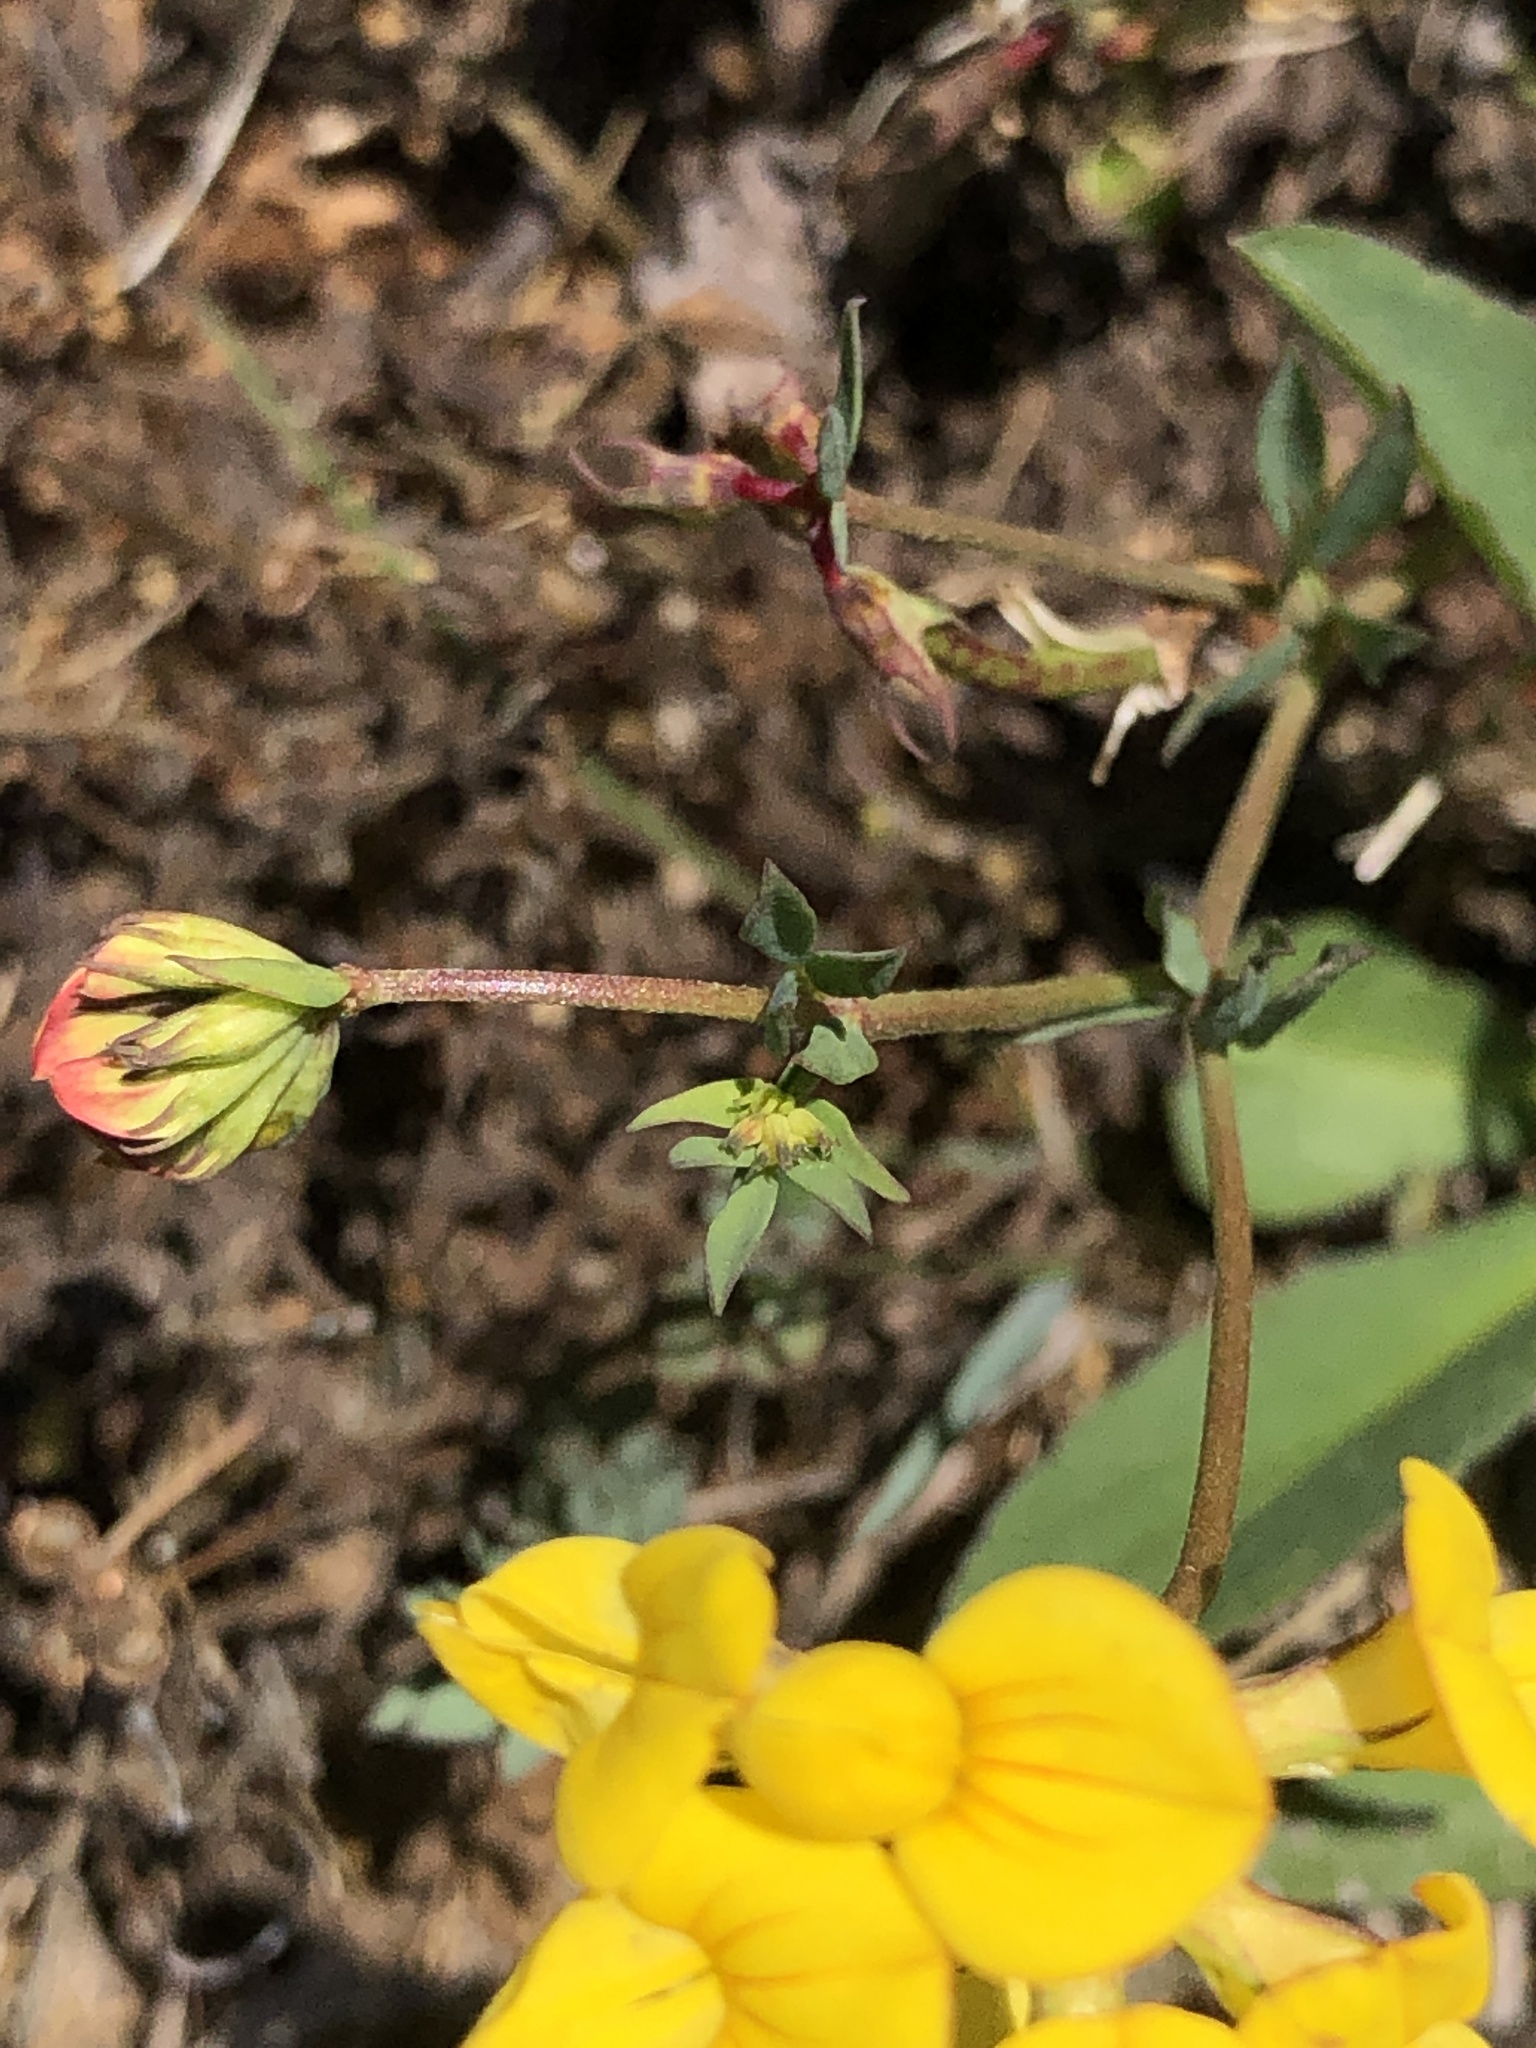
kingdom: Plantae
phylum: Tracheophyta
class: Magnoliopsida
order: Fabales
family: Fabaceae
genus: Lotus
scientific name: Lotus corniculatus
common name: Common bird's-foot-trefoil
